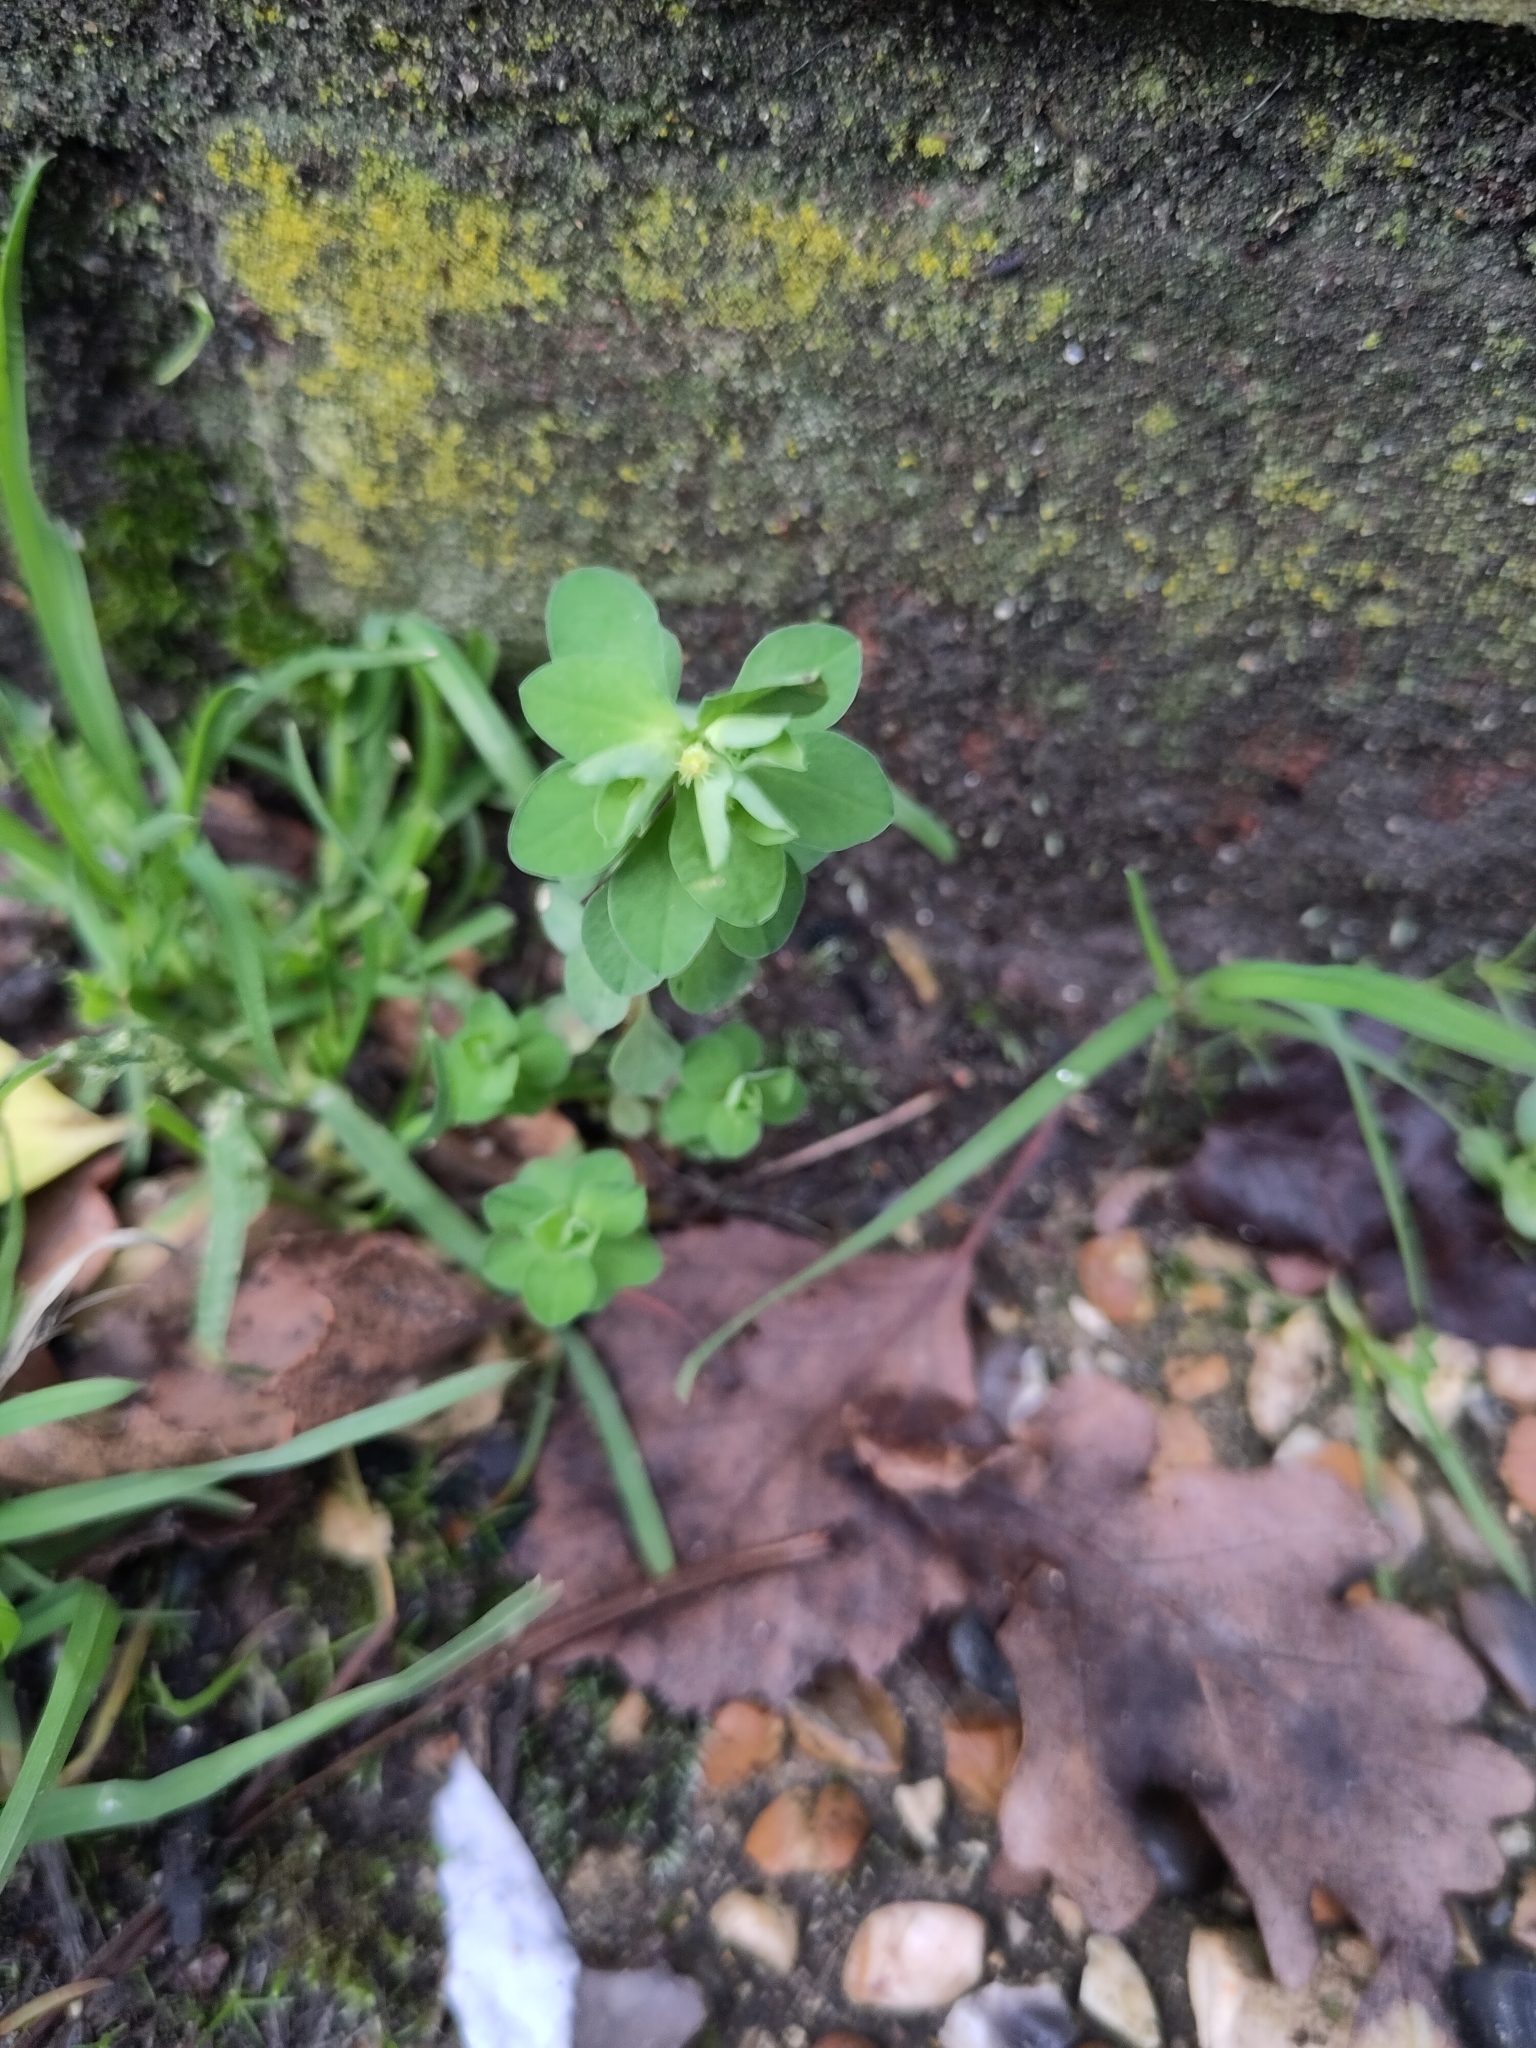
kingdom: Plantae
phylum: Tracheophyta
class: Magnoliopsida
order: Malpighiales
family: Euphorbiaceae
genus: Euphorbia
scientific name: Euphorbia peplus
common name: Petty spurge
